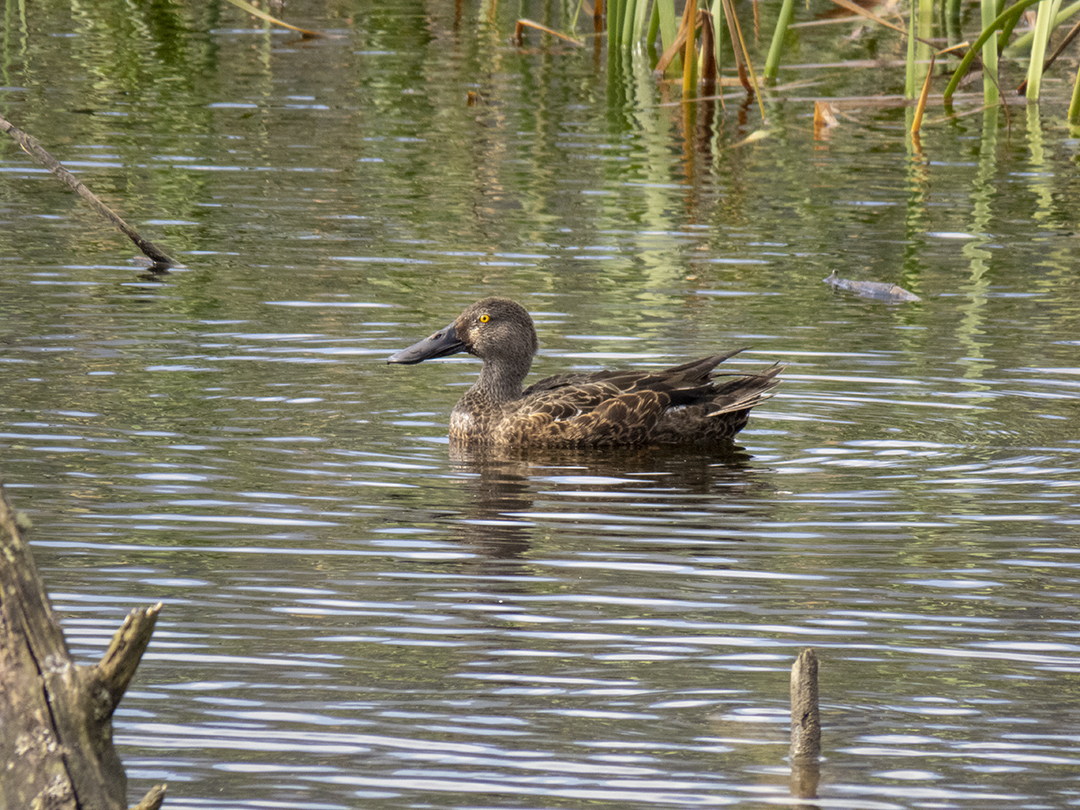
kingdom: Animalia
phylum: Chordata
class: Aves
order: Anseriformes
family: Anatidae
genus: Spatula
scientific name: Spatula rhynchotis
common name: Australian shoveler
